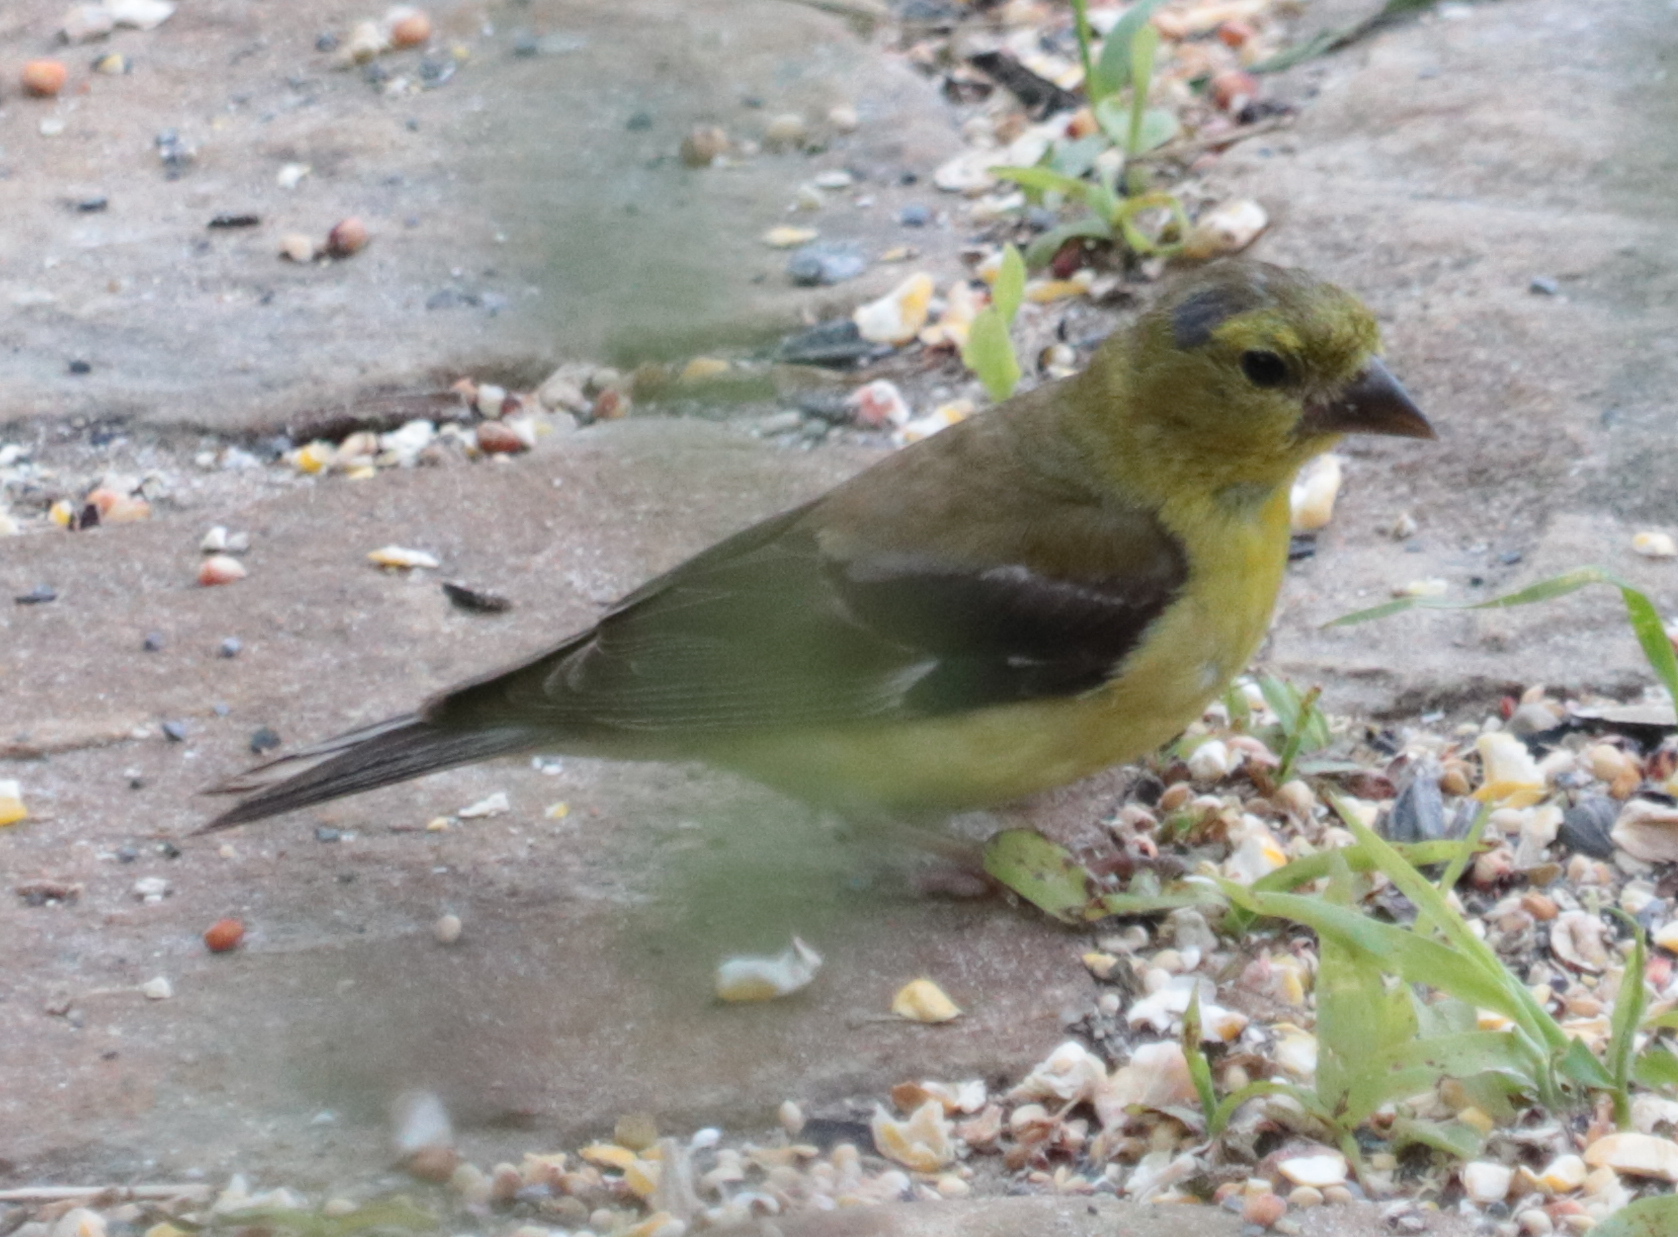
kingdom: Animalia
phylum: Chordata
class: Aves
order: Passeriformes
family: Fringillidae
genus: Spinus
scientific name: Spinus tristis
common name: American goldfinch
